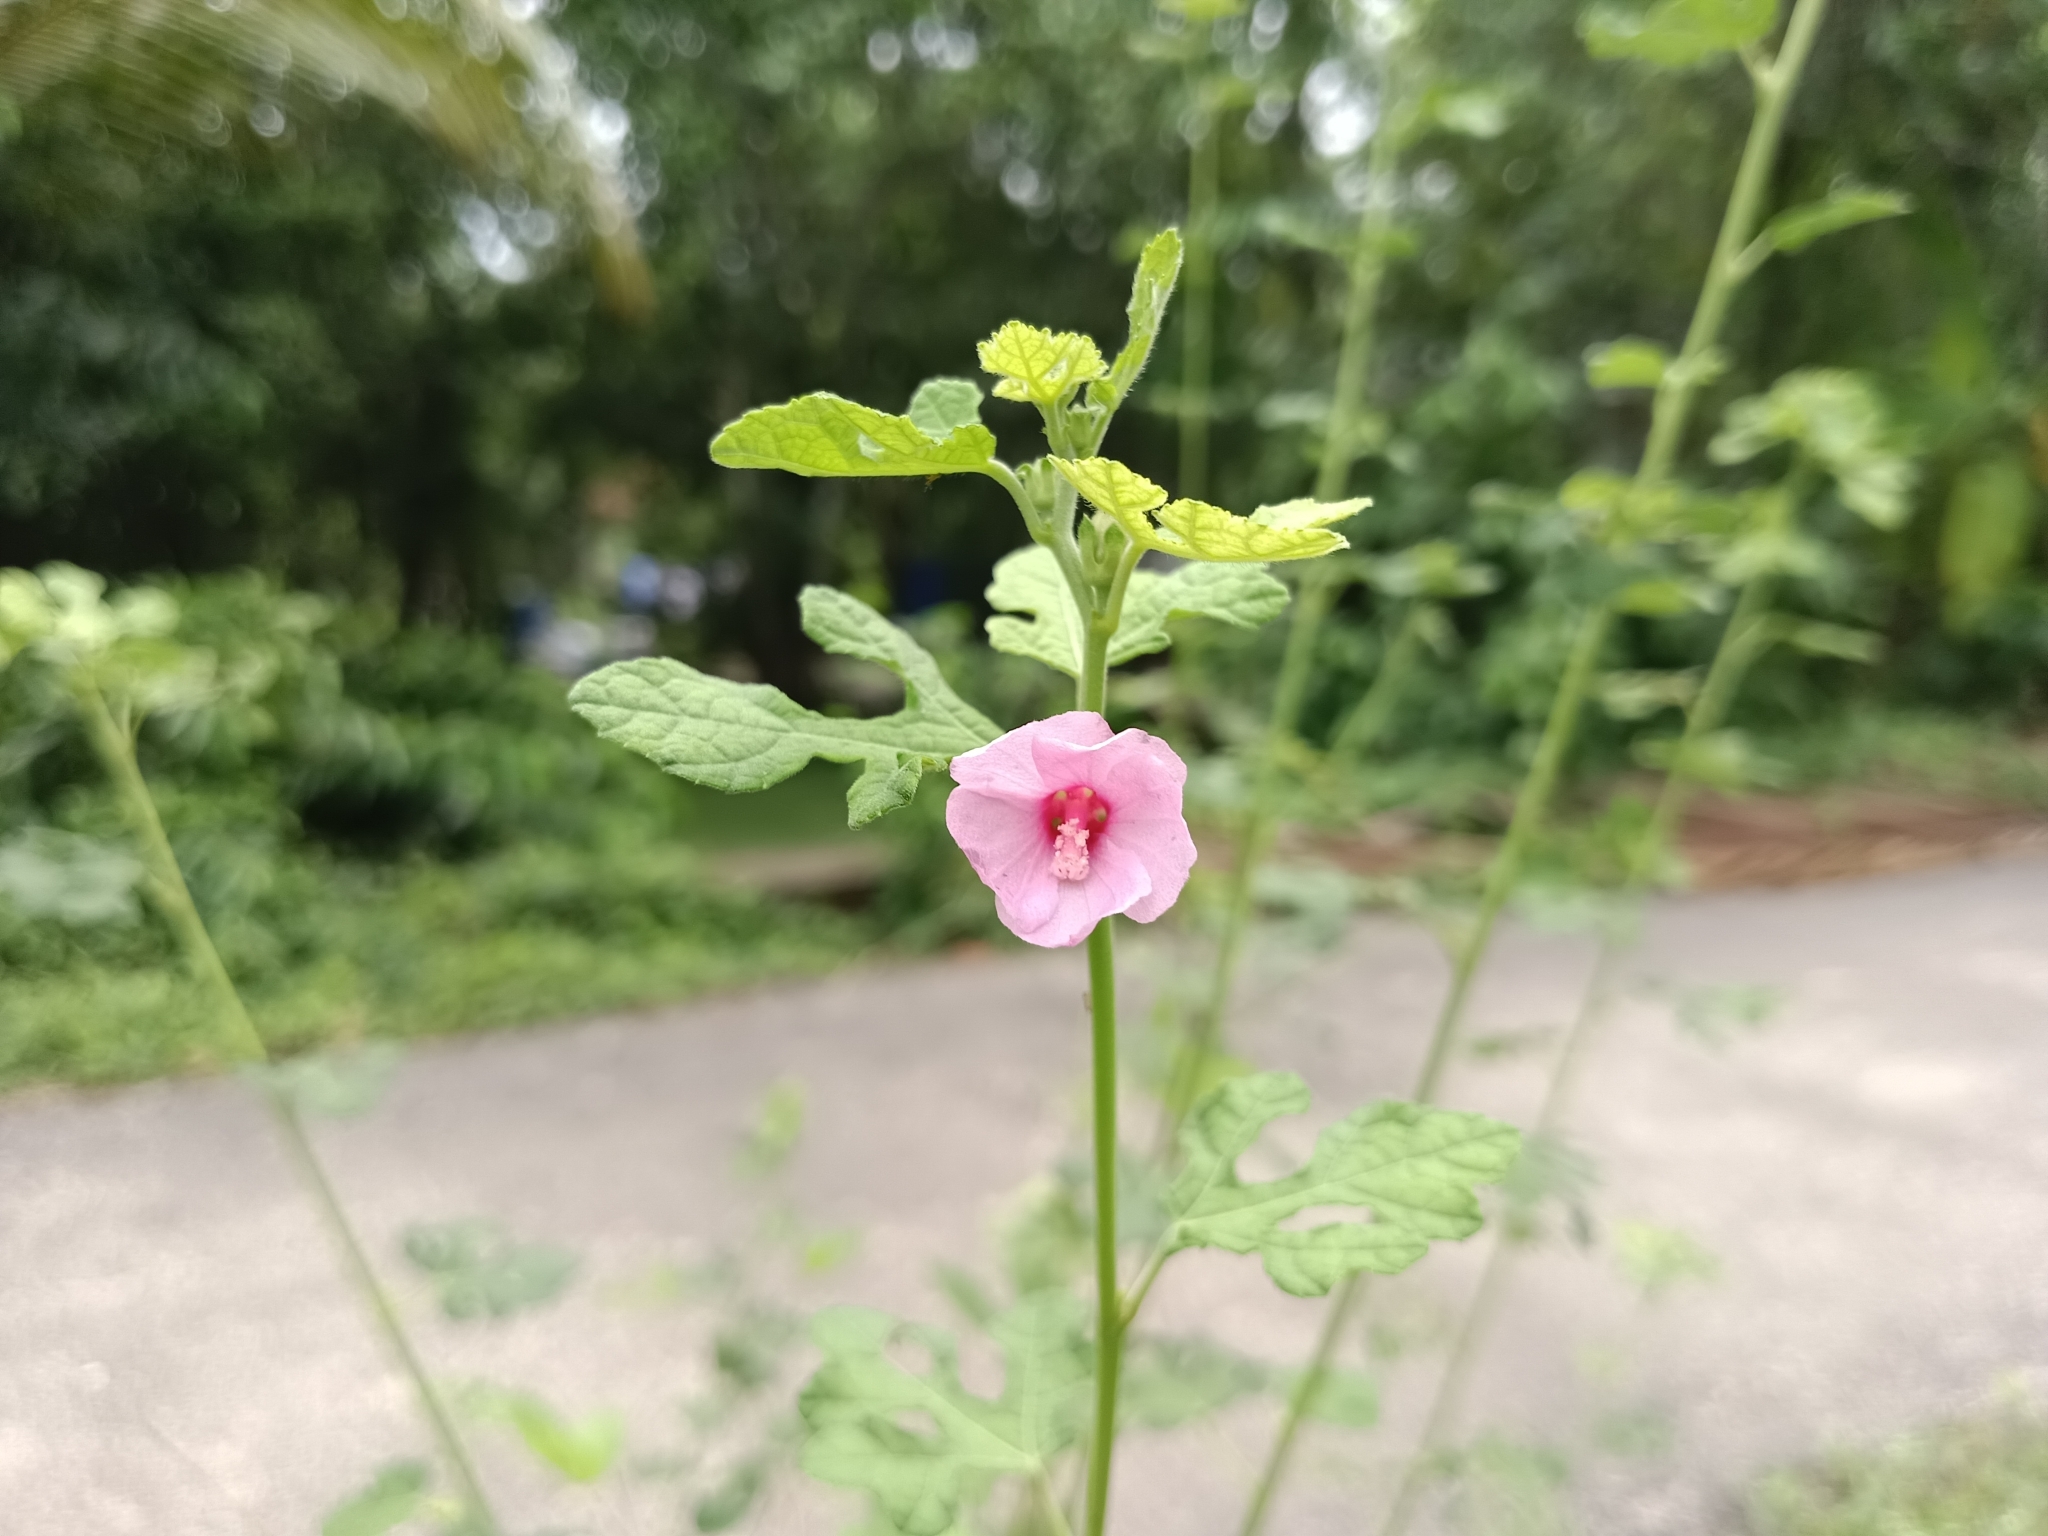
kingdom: Plantae
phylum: Tracheophyta
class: Magnoliopsida
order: Malvales
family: Malvaceae
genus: Urena
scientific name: Urena lobata
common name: Caesarweed
